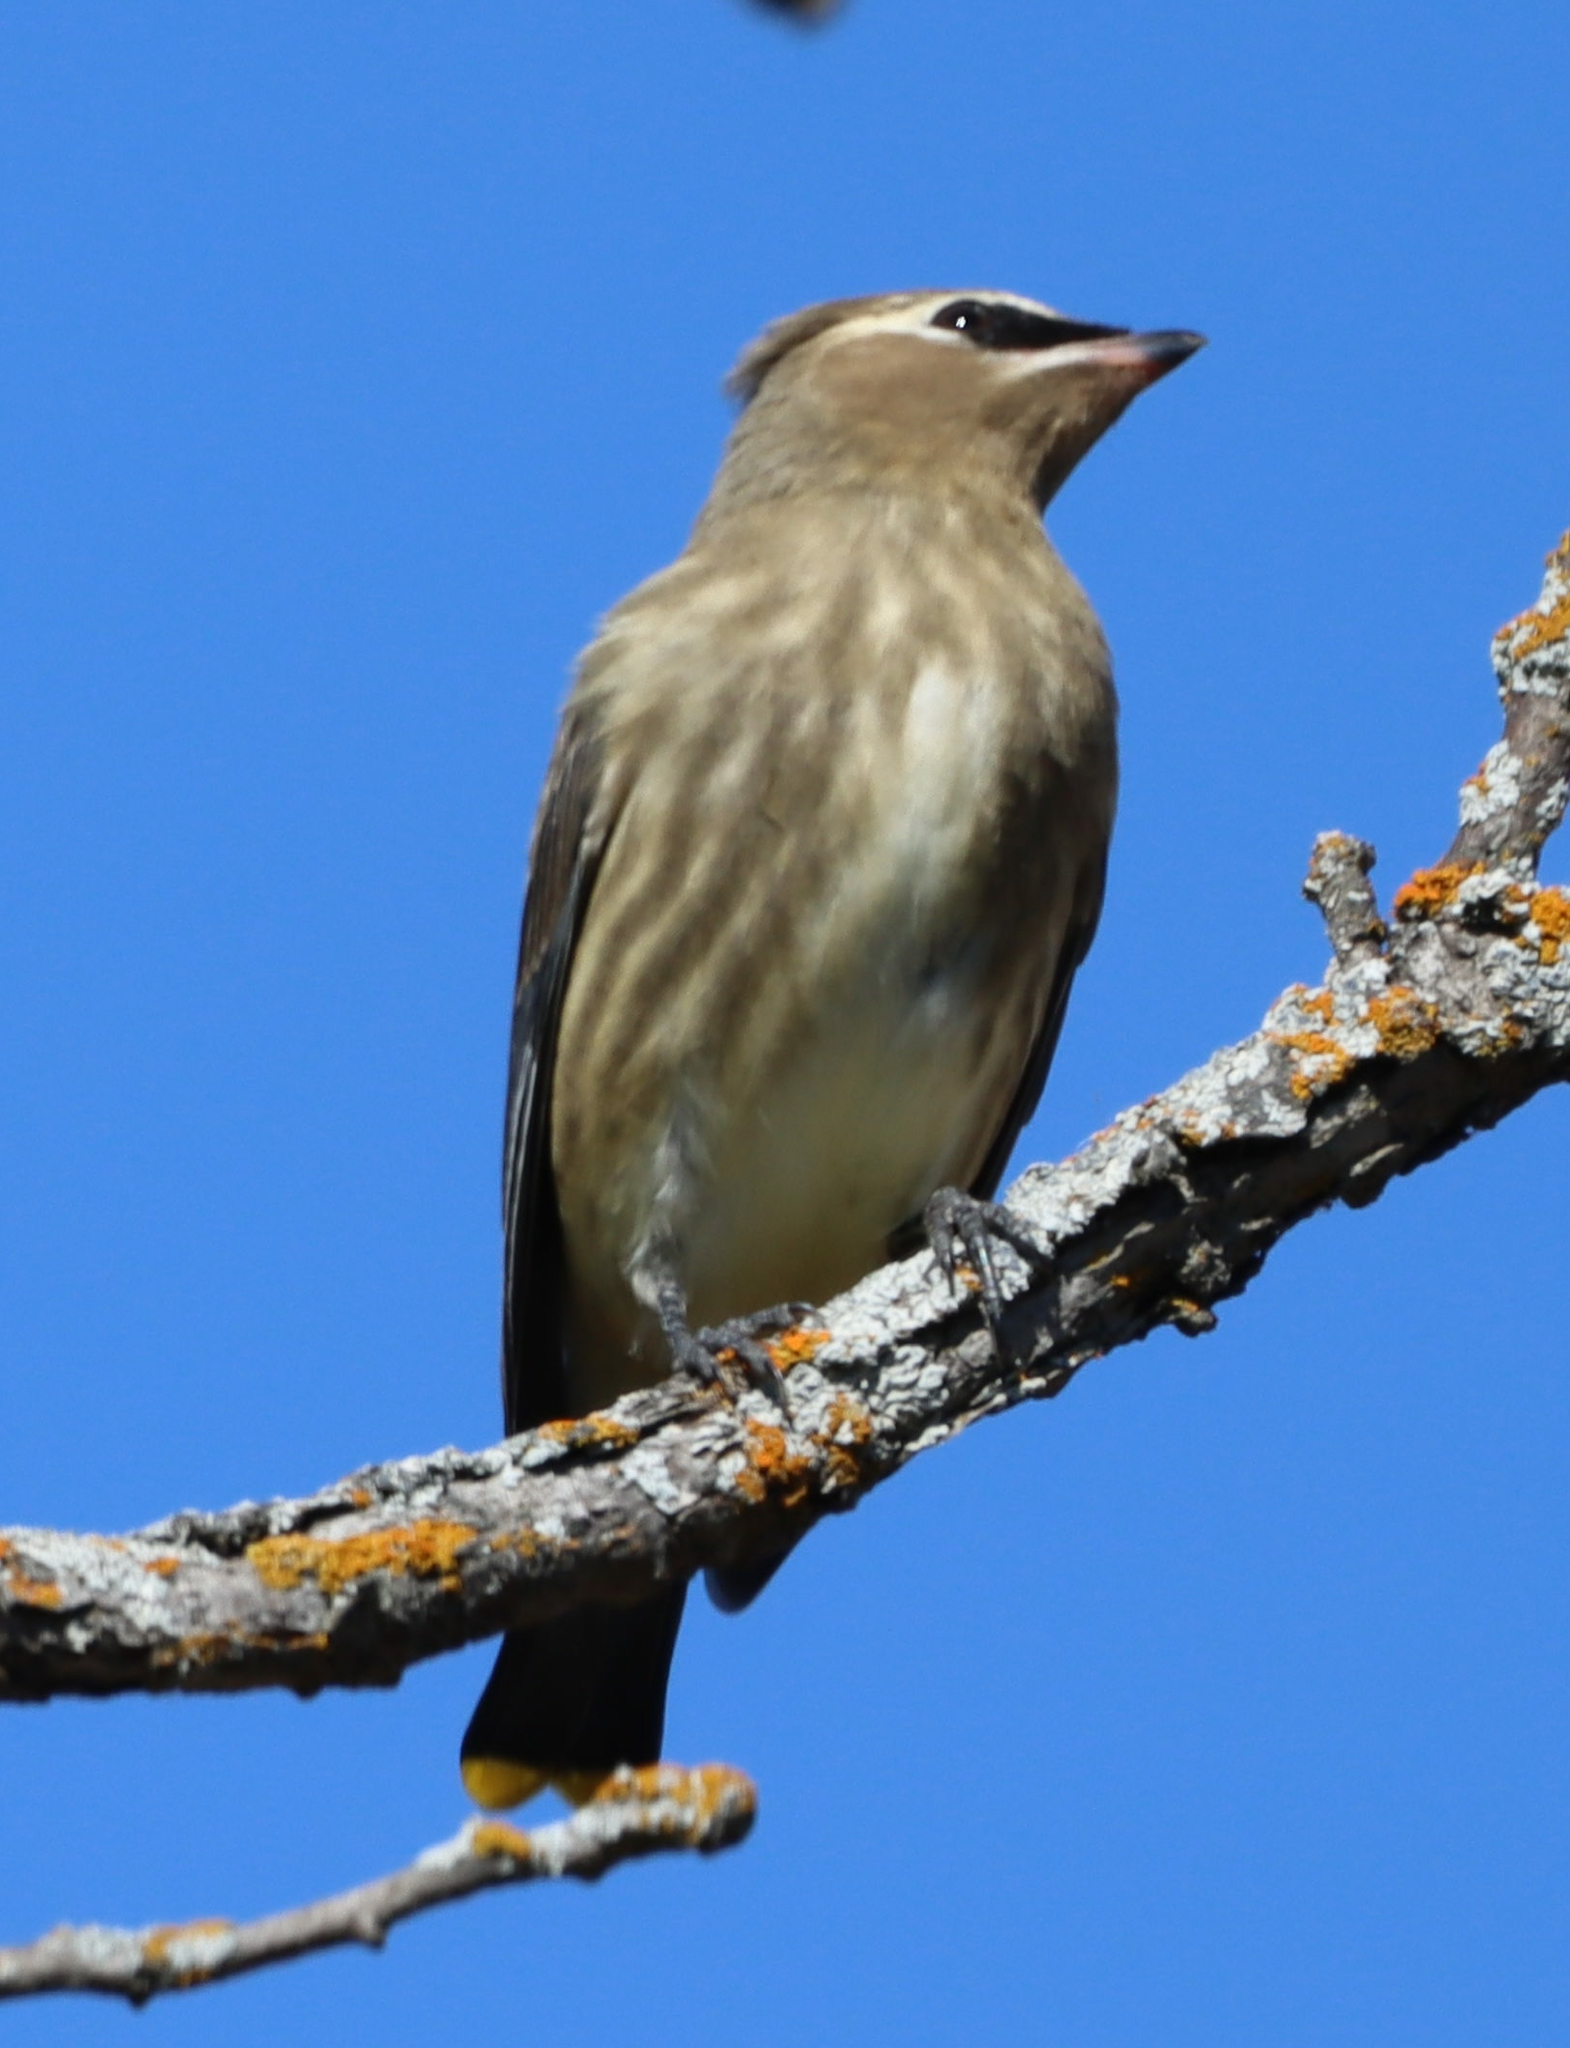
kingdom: Animalia
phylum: Chordata
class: Aves
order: Passeriformes
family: Bombycillidae
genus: Bombycilla
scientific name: Bombycilla cedrorum
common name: Cedar waxwing
